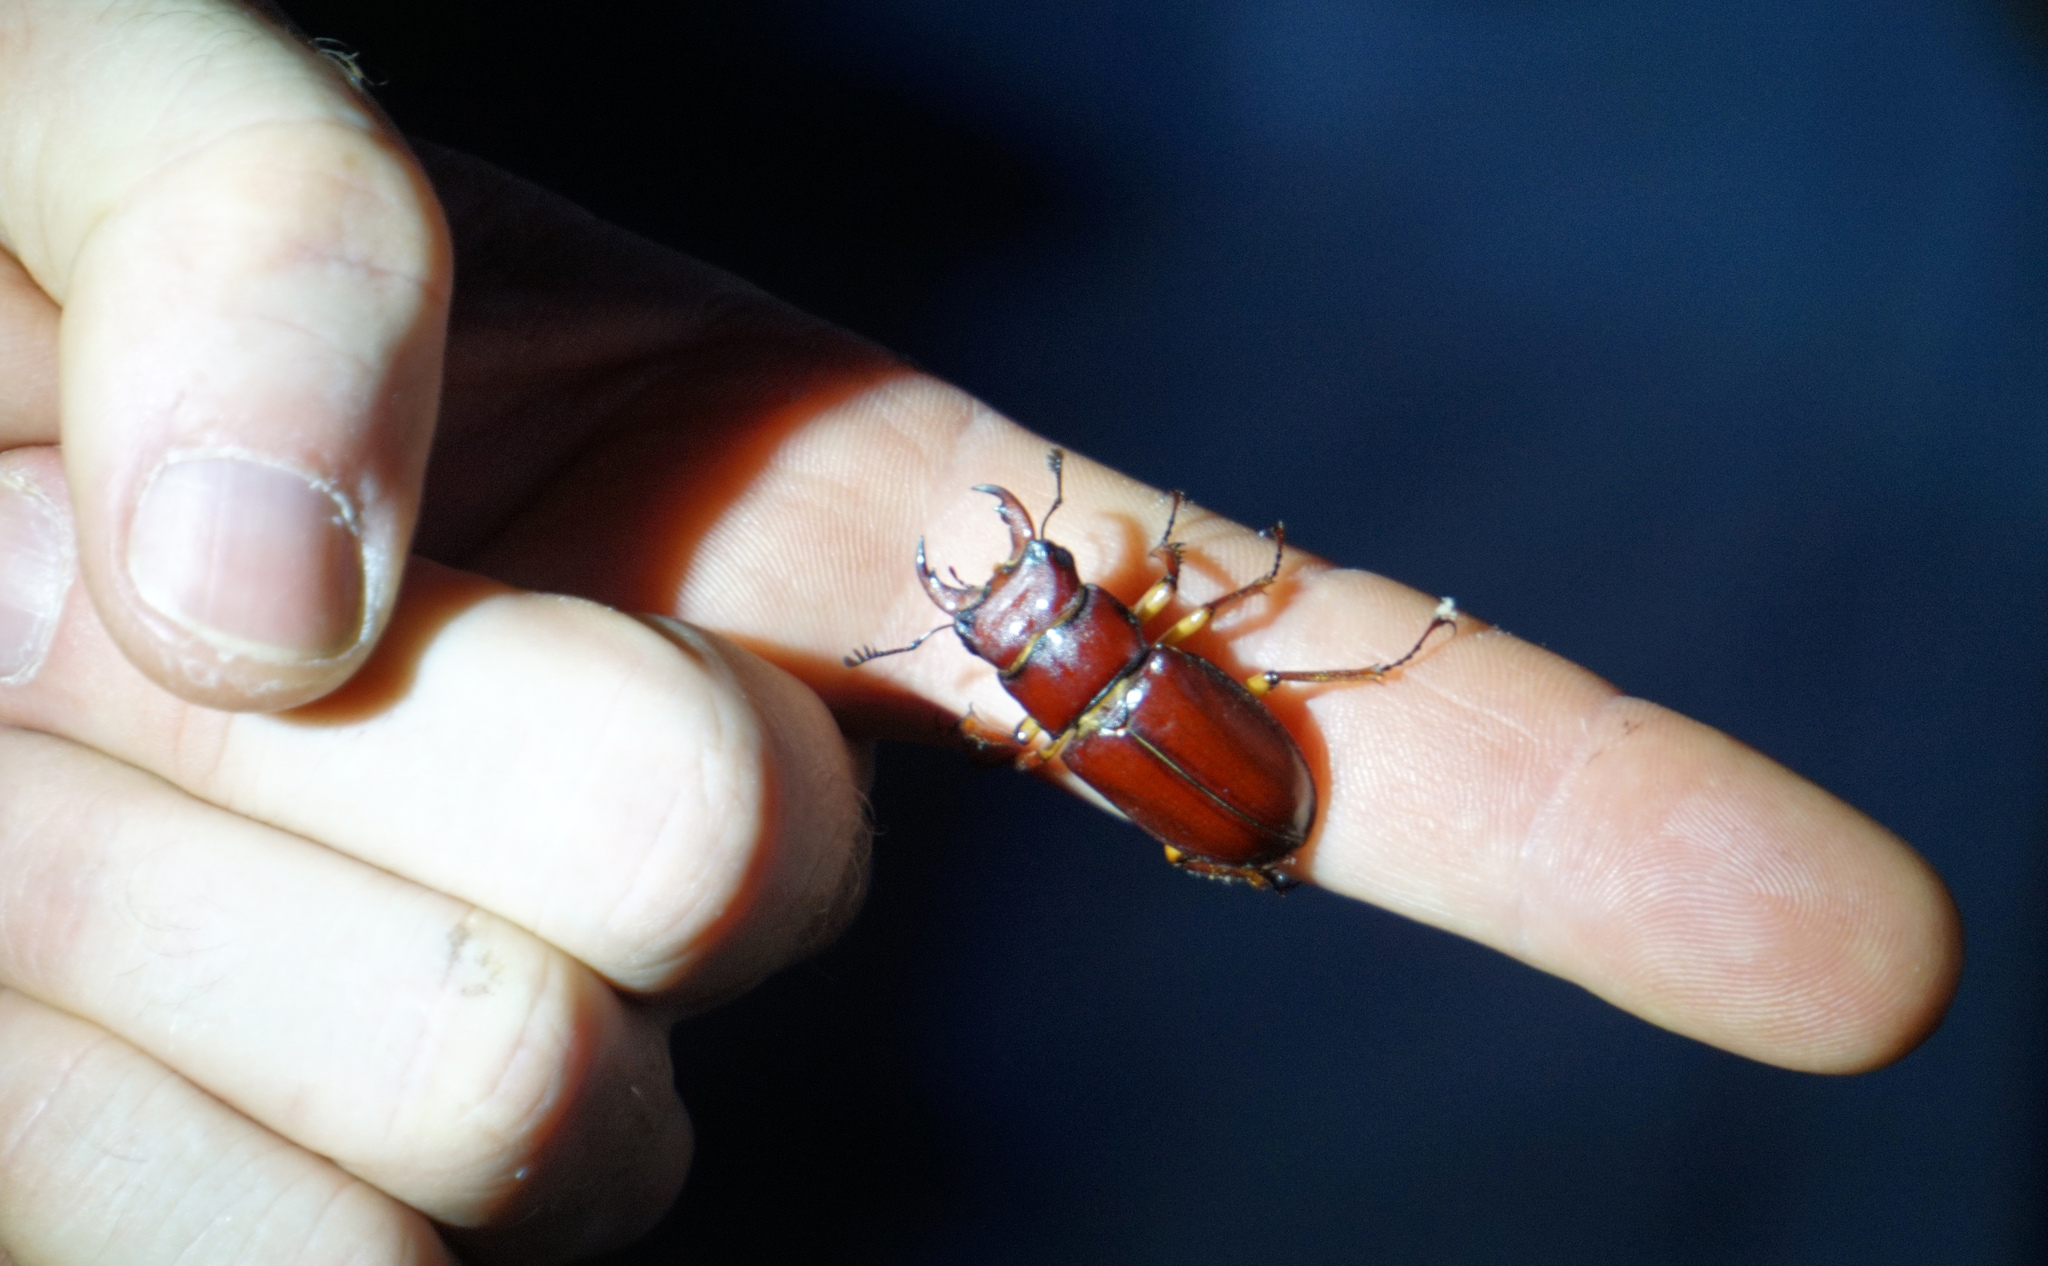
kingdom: Animalia
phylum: Arthropoda
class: Insecta
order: Coleoptera
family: Lucanidae
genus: Lucanus
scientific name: Lucanus capreolus
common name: Stag beetle
